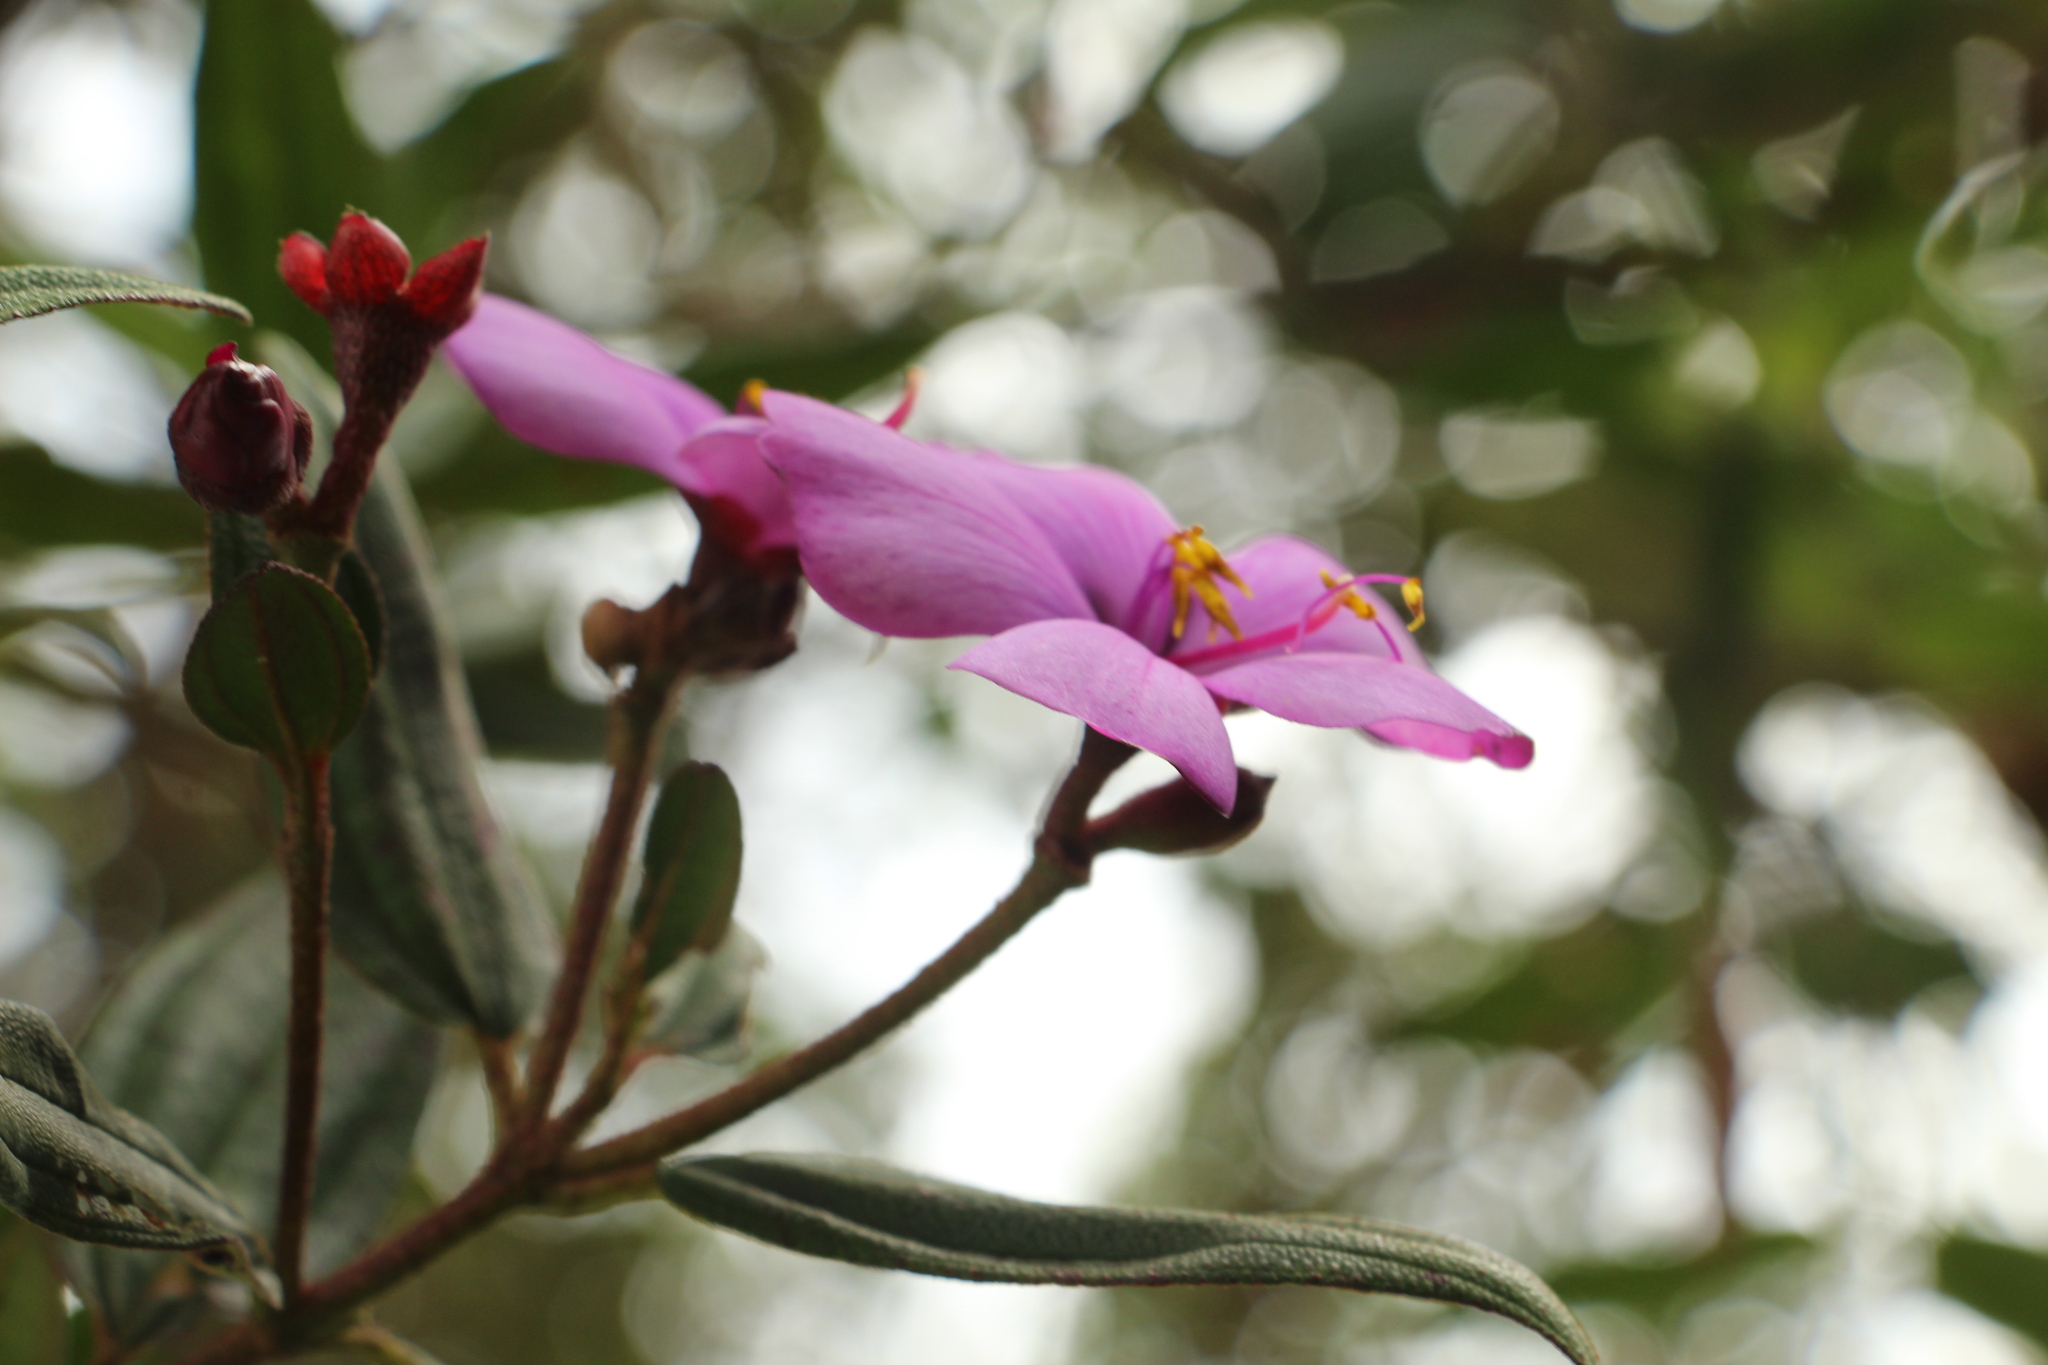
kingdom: Plantae
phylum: Tracheophyta
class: Magnoliopsida
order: Myrtales
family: Melastomataceae
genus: Andesanthus
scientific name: Andesanthus lepidotus
